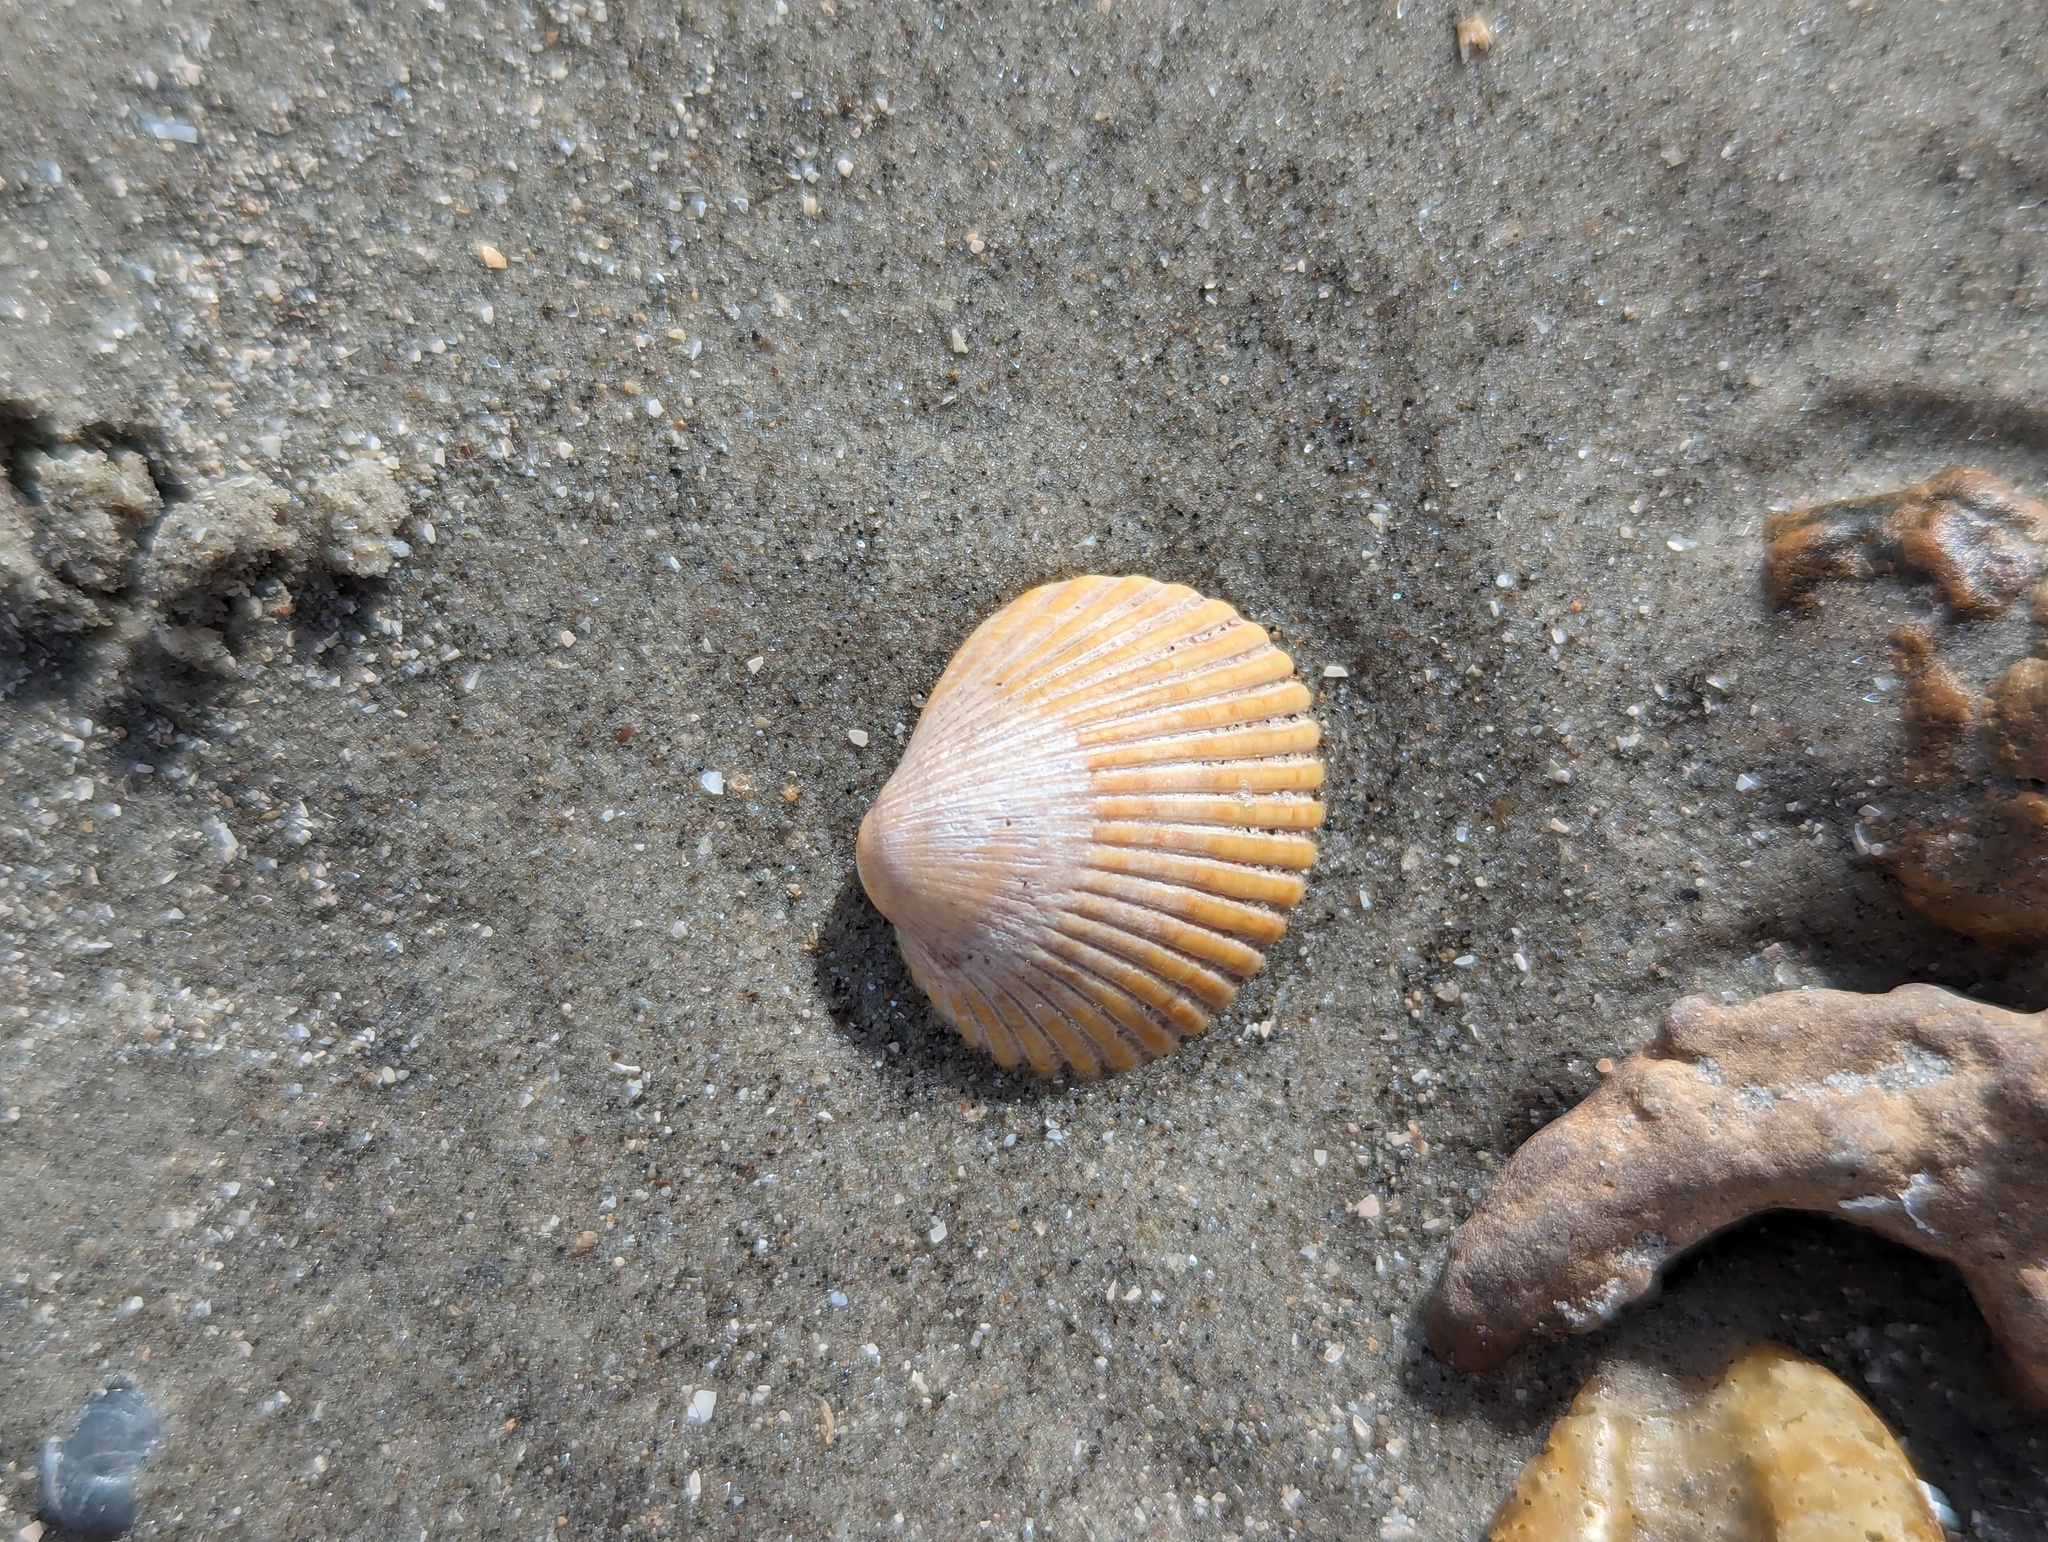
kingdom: Animalia
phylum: Mollusca
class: Bivalvia
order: Arcida
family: Arcidae
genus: Lunarca
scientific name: Lunarca ovalis
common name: Blood ark
